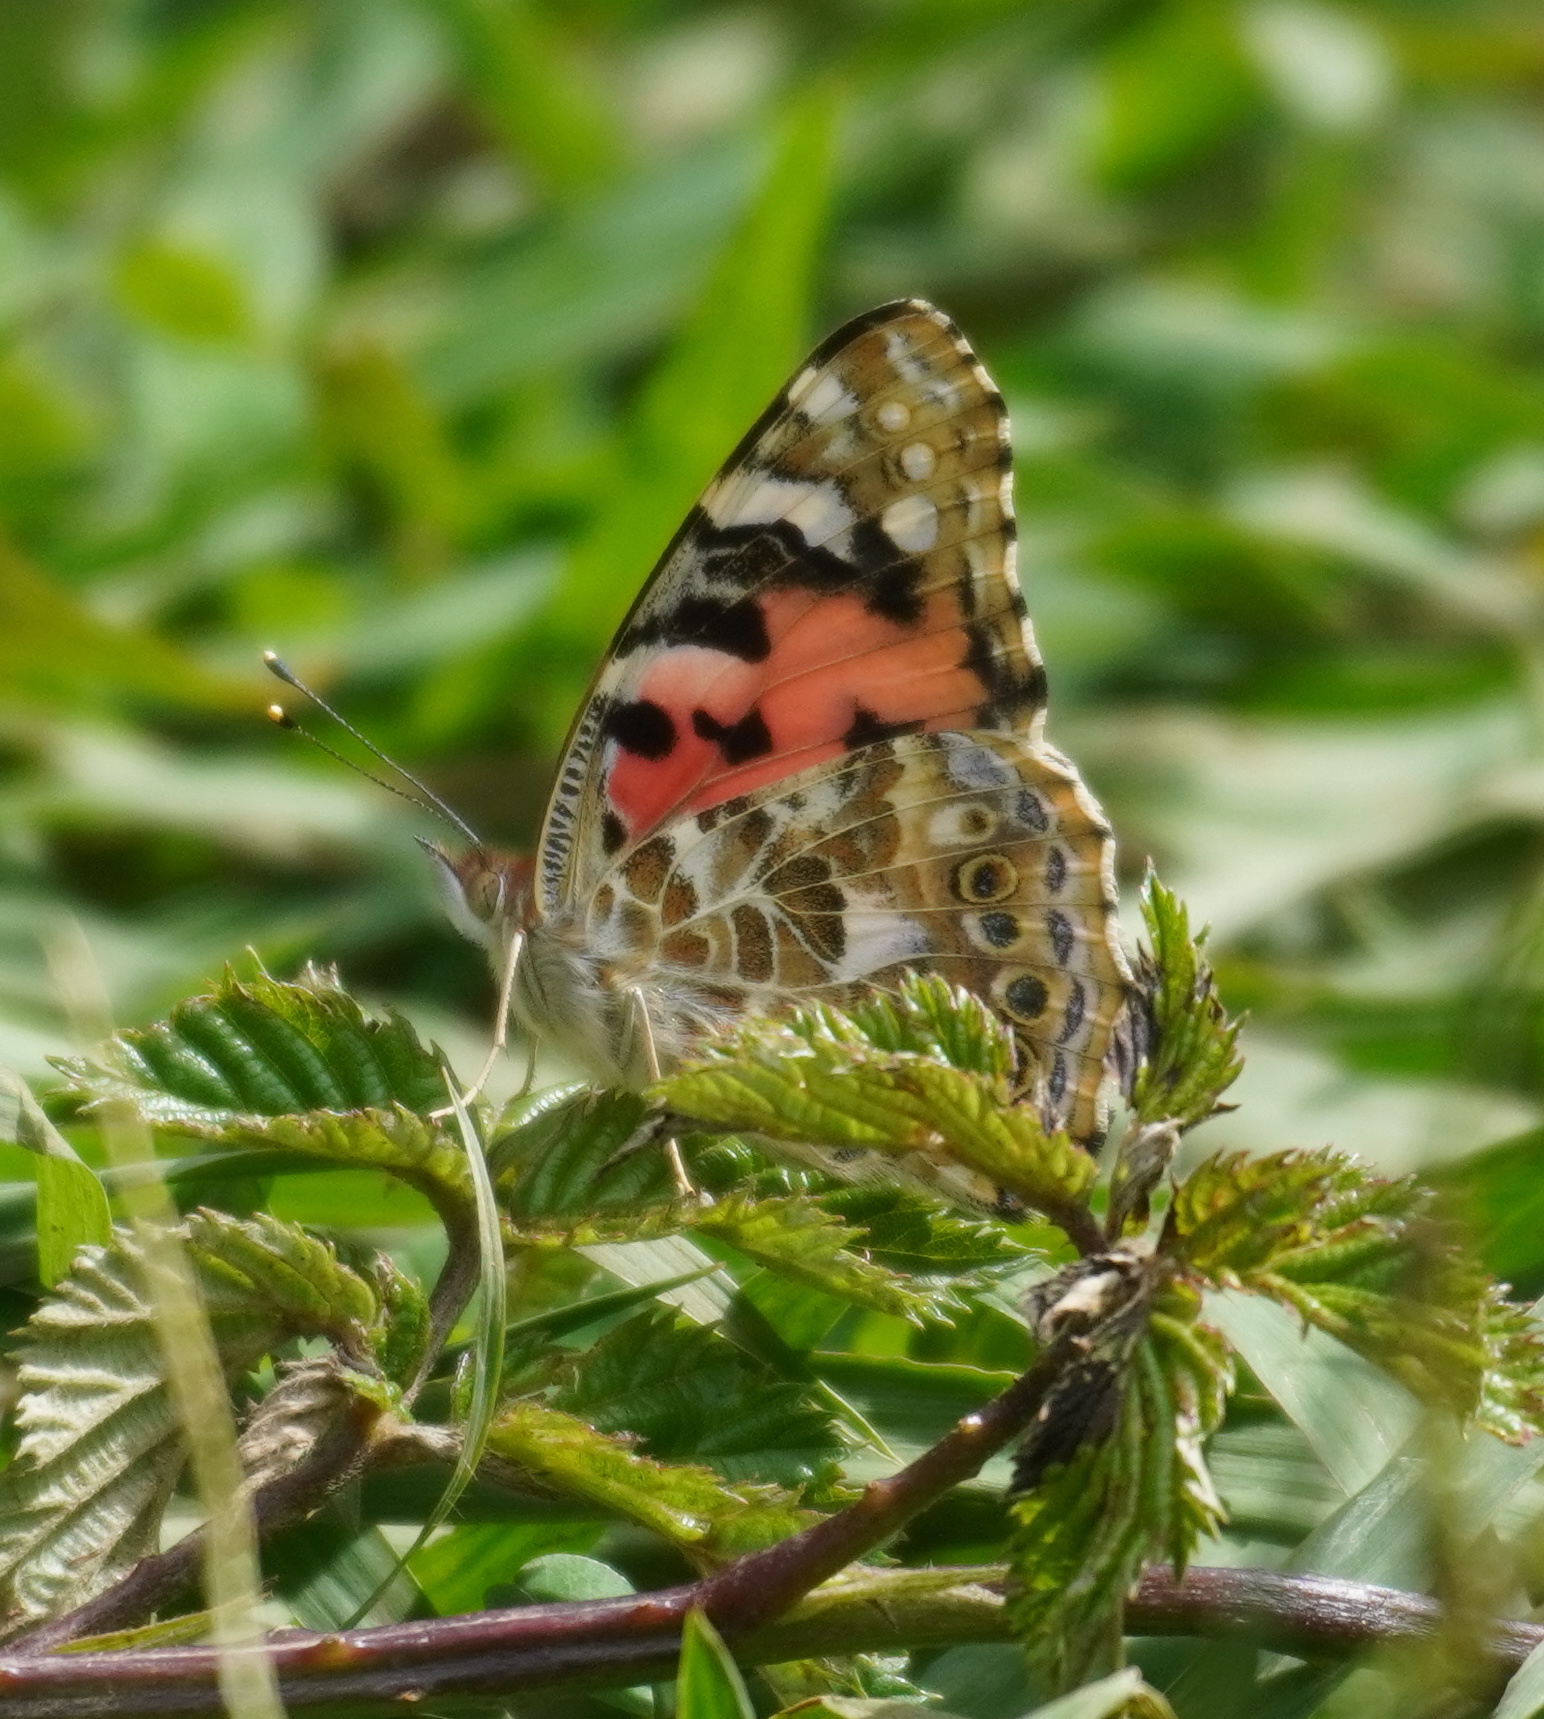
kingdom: Animalia
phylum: Arthropoda
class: Insecta
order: Lepidoptera
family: Nymphalidae
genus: Vanessa
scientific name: Vanessa cardui
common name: Painted lady
